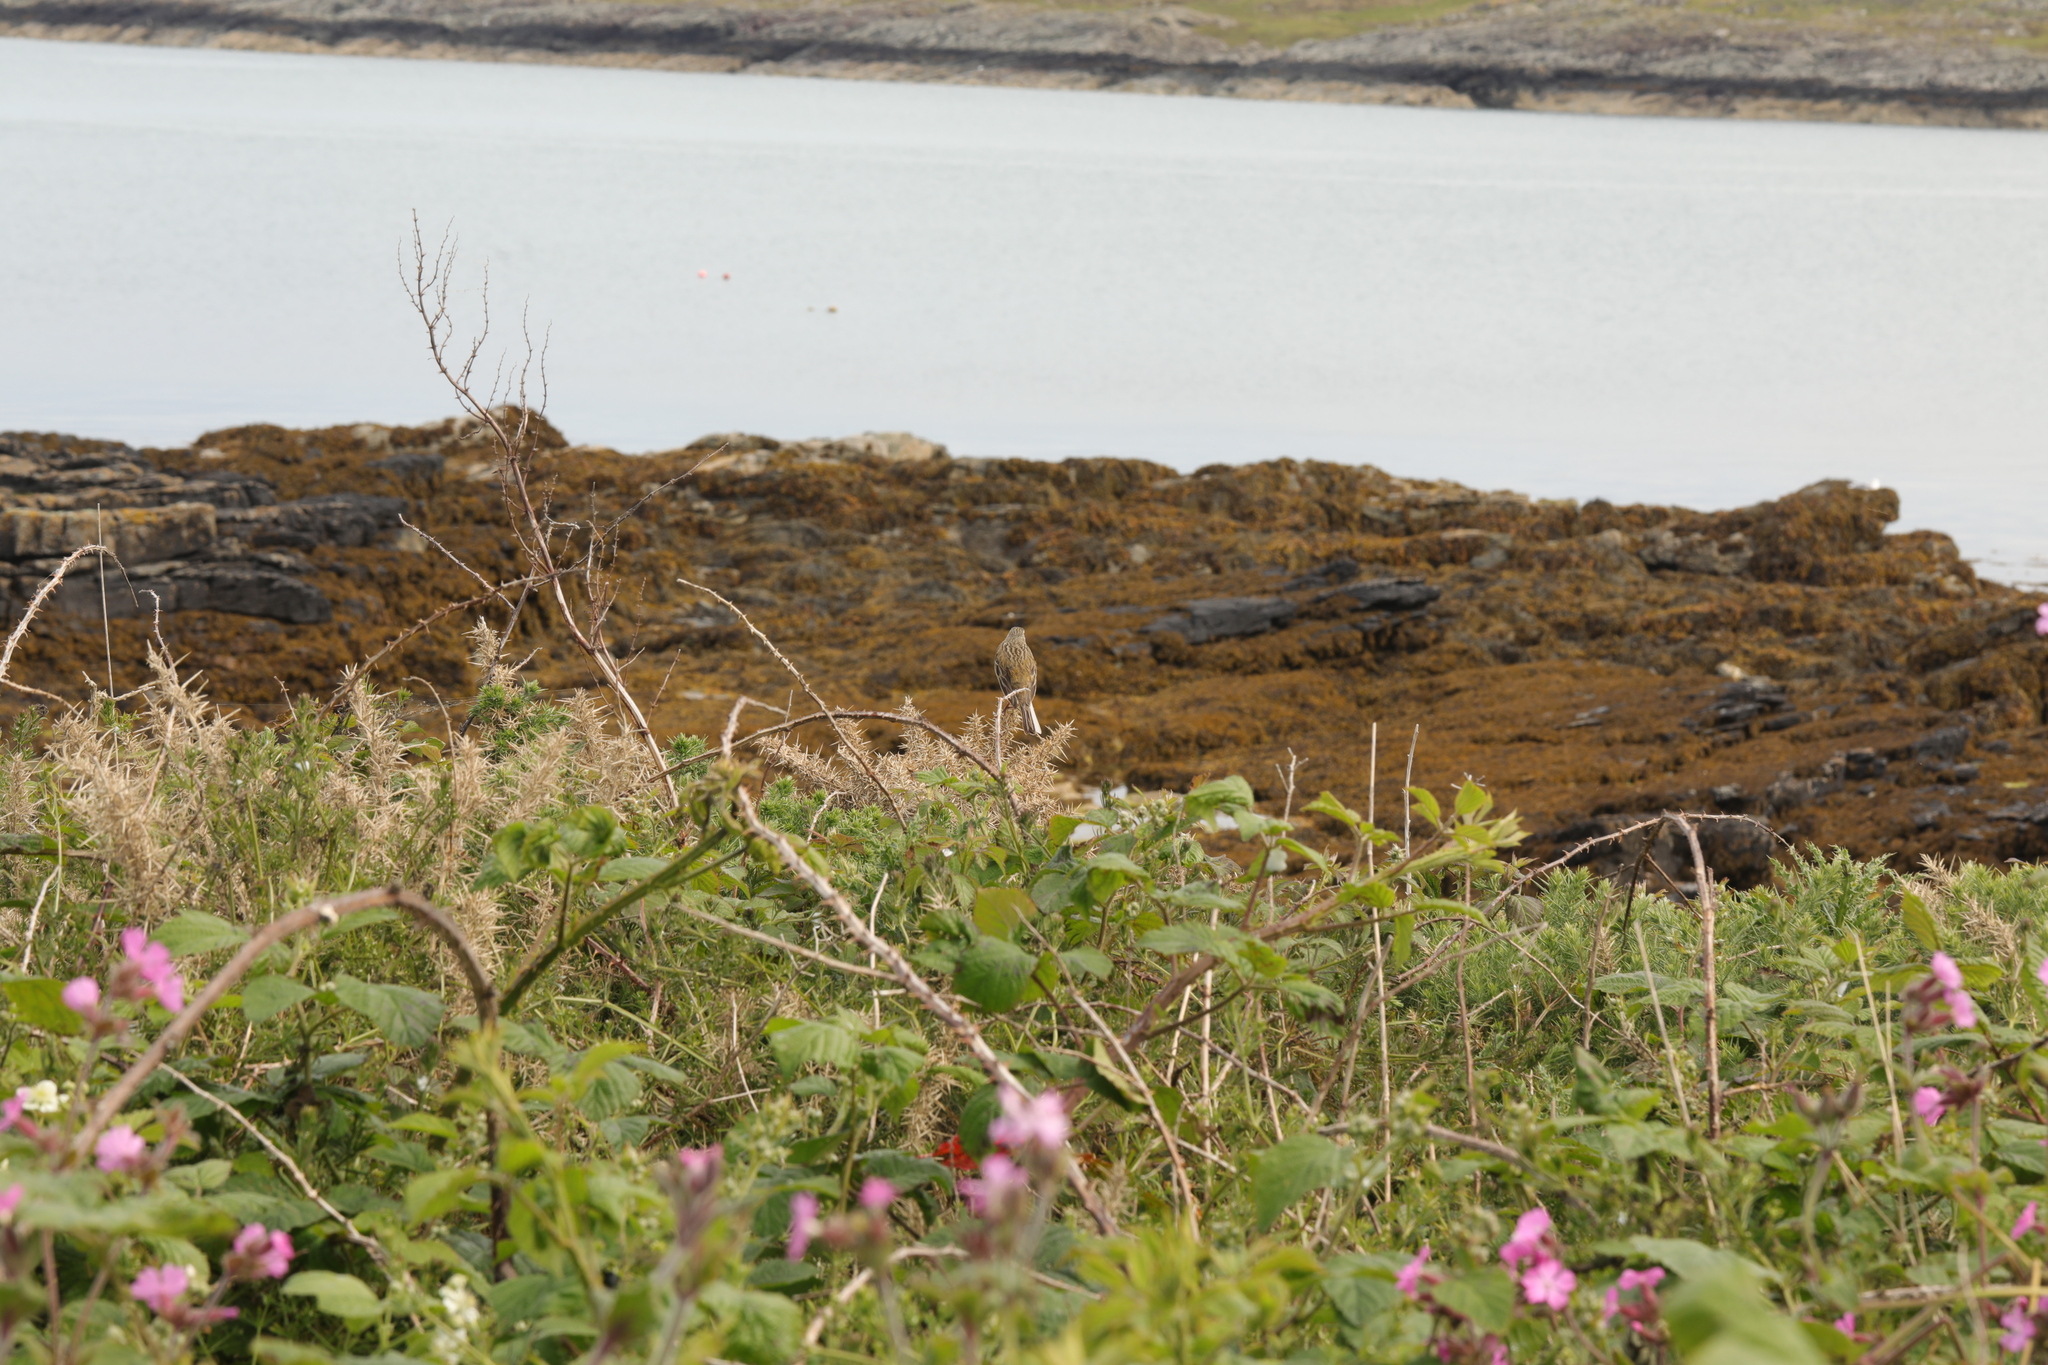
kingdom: Animalia
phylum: Chordata
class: Aves
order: Passeriformes
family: Motacillidae
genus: Anthus
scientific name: Anthus pratensis
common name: Meadow pipit
